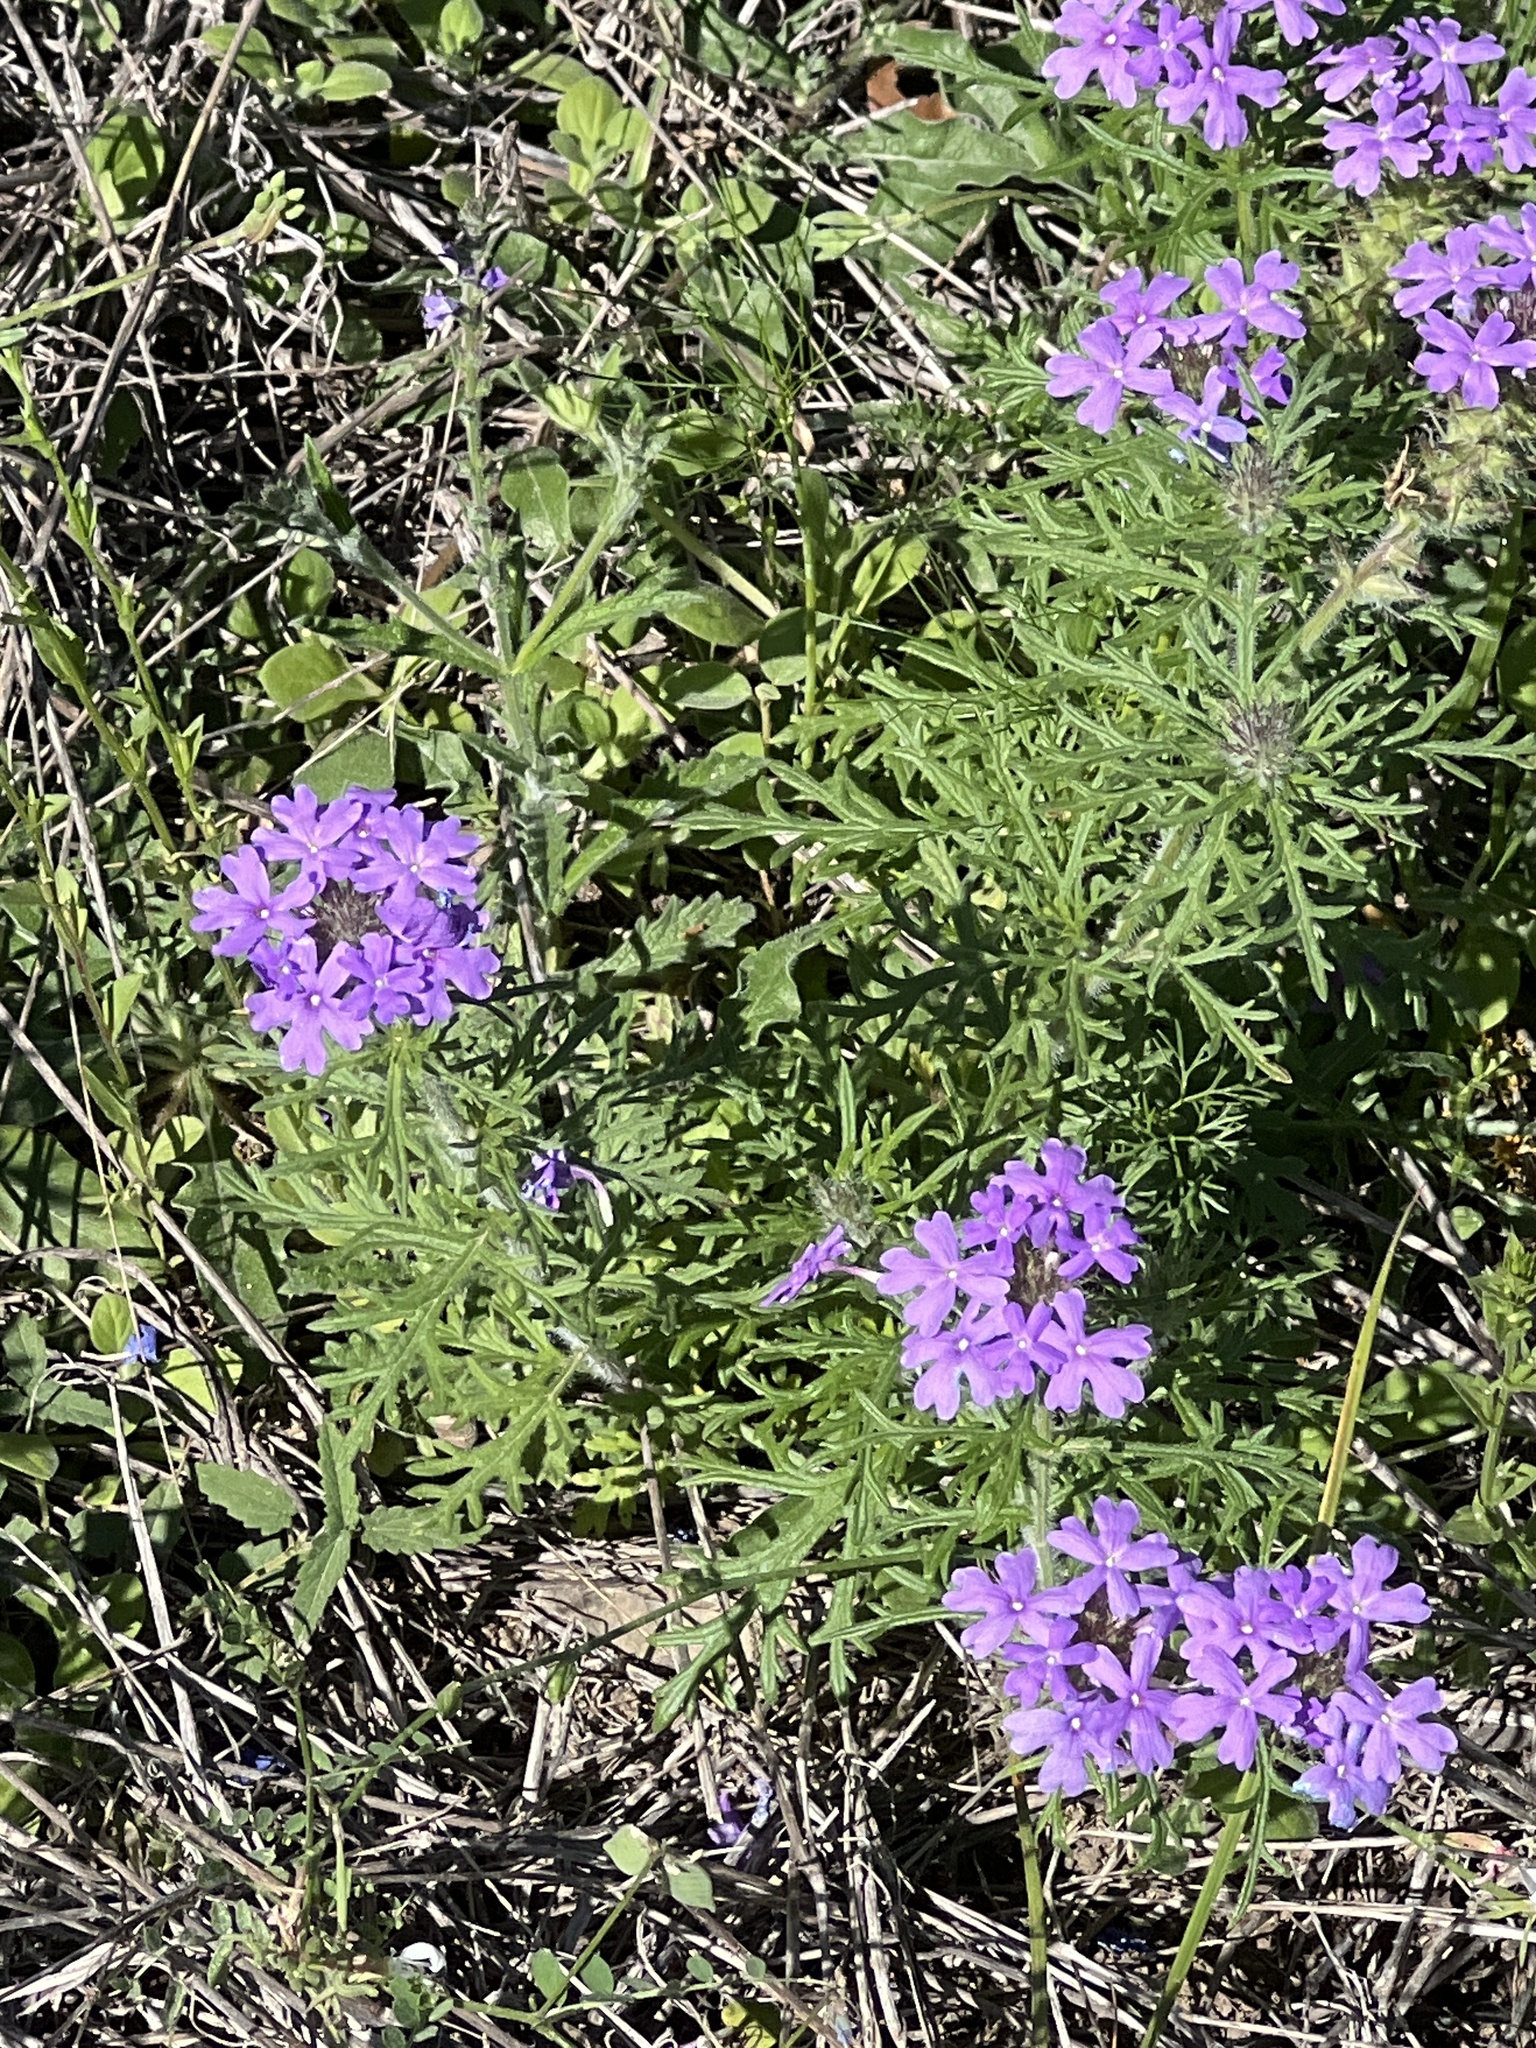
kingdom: Plantae
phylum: Tracheophyta
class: Magnoliopsida
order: Lamiales
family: Verbenaceae
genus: Verbena
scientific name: Verbena bipinnatifida
